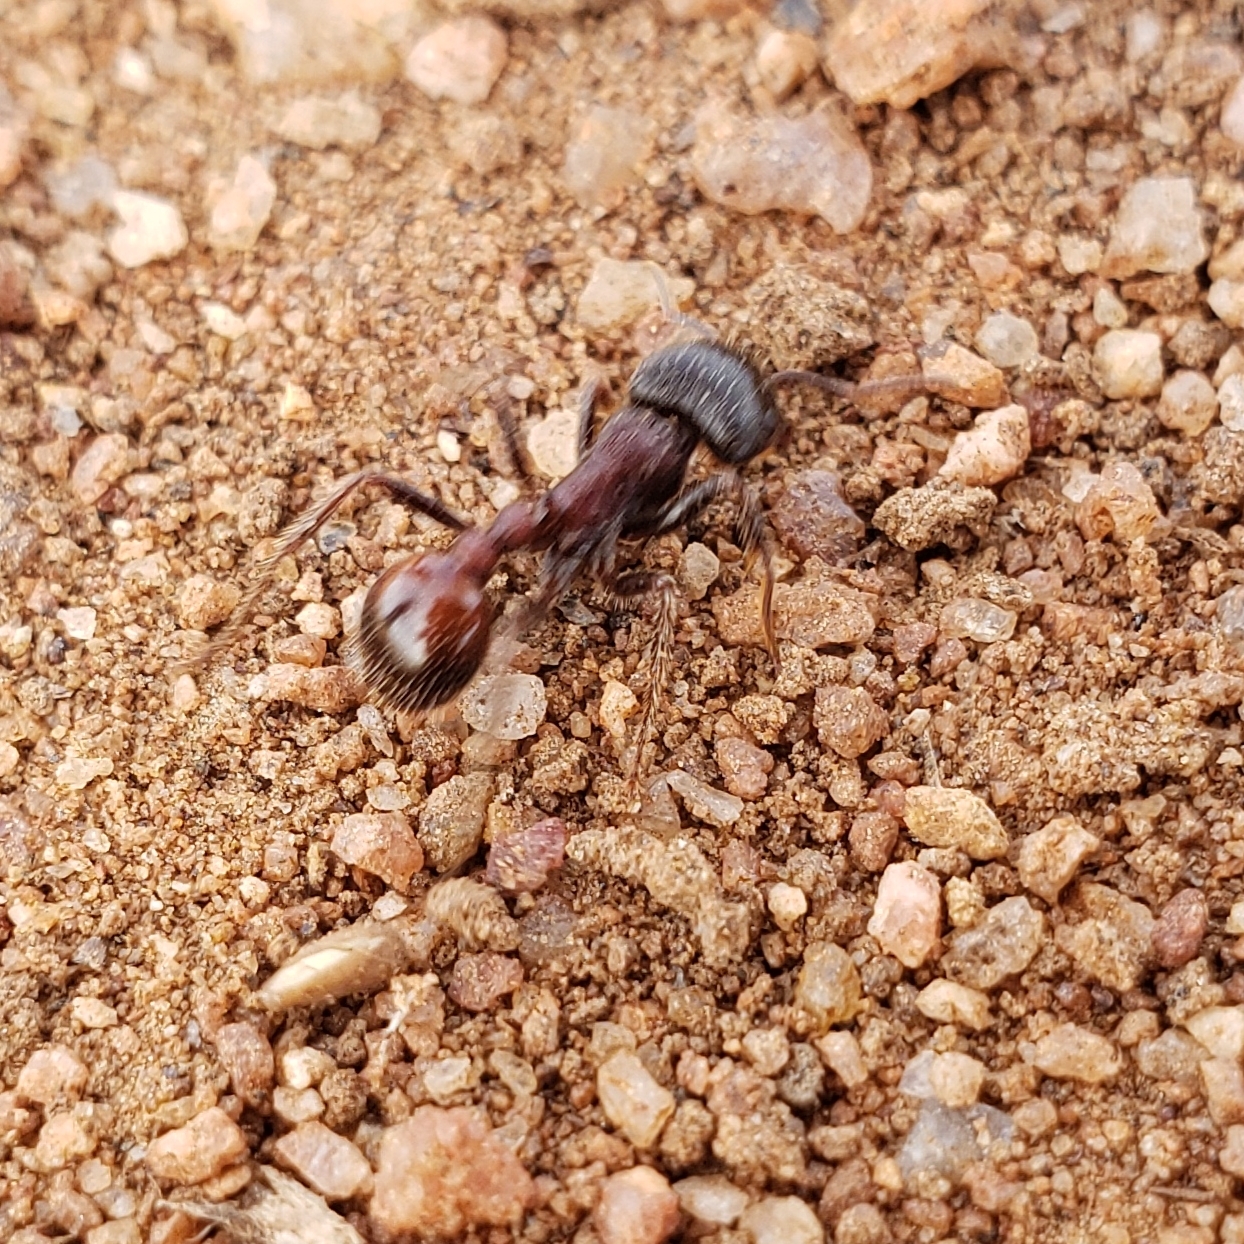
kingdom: Animalia
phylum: Arthropoda
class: Insecta
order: Hymenoptera
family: Formicidae
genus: Pogonomyrmex
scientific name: Pogonomyrmex rugosus
